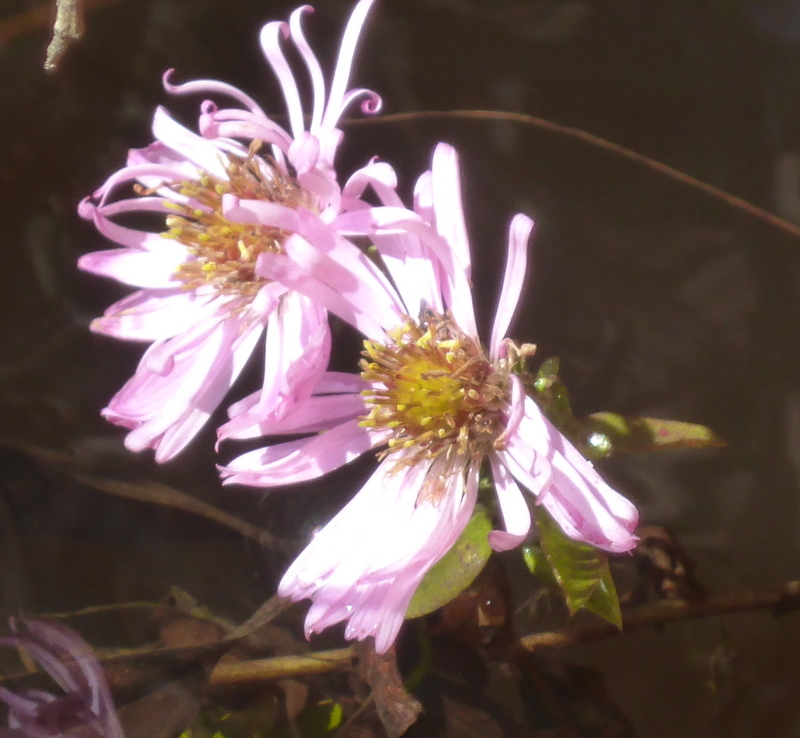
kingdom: Plantae
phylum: Tracheophyta
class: Magnoliopsida
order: Asterales
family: Asteraceae
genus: Ampelaster
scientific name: Ampelaster carolinianus
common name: Climbing aster
